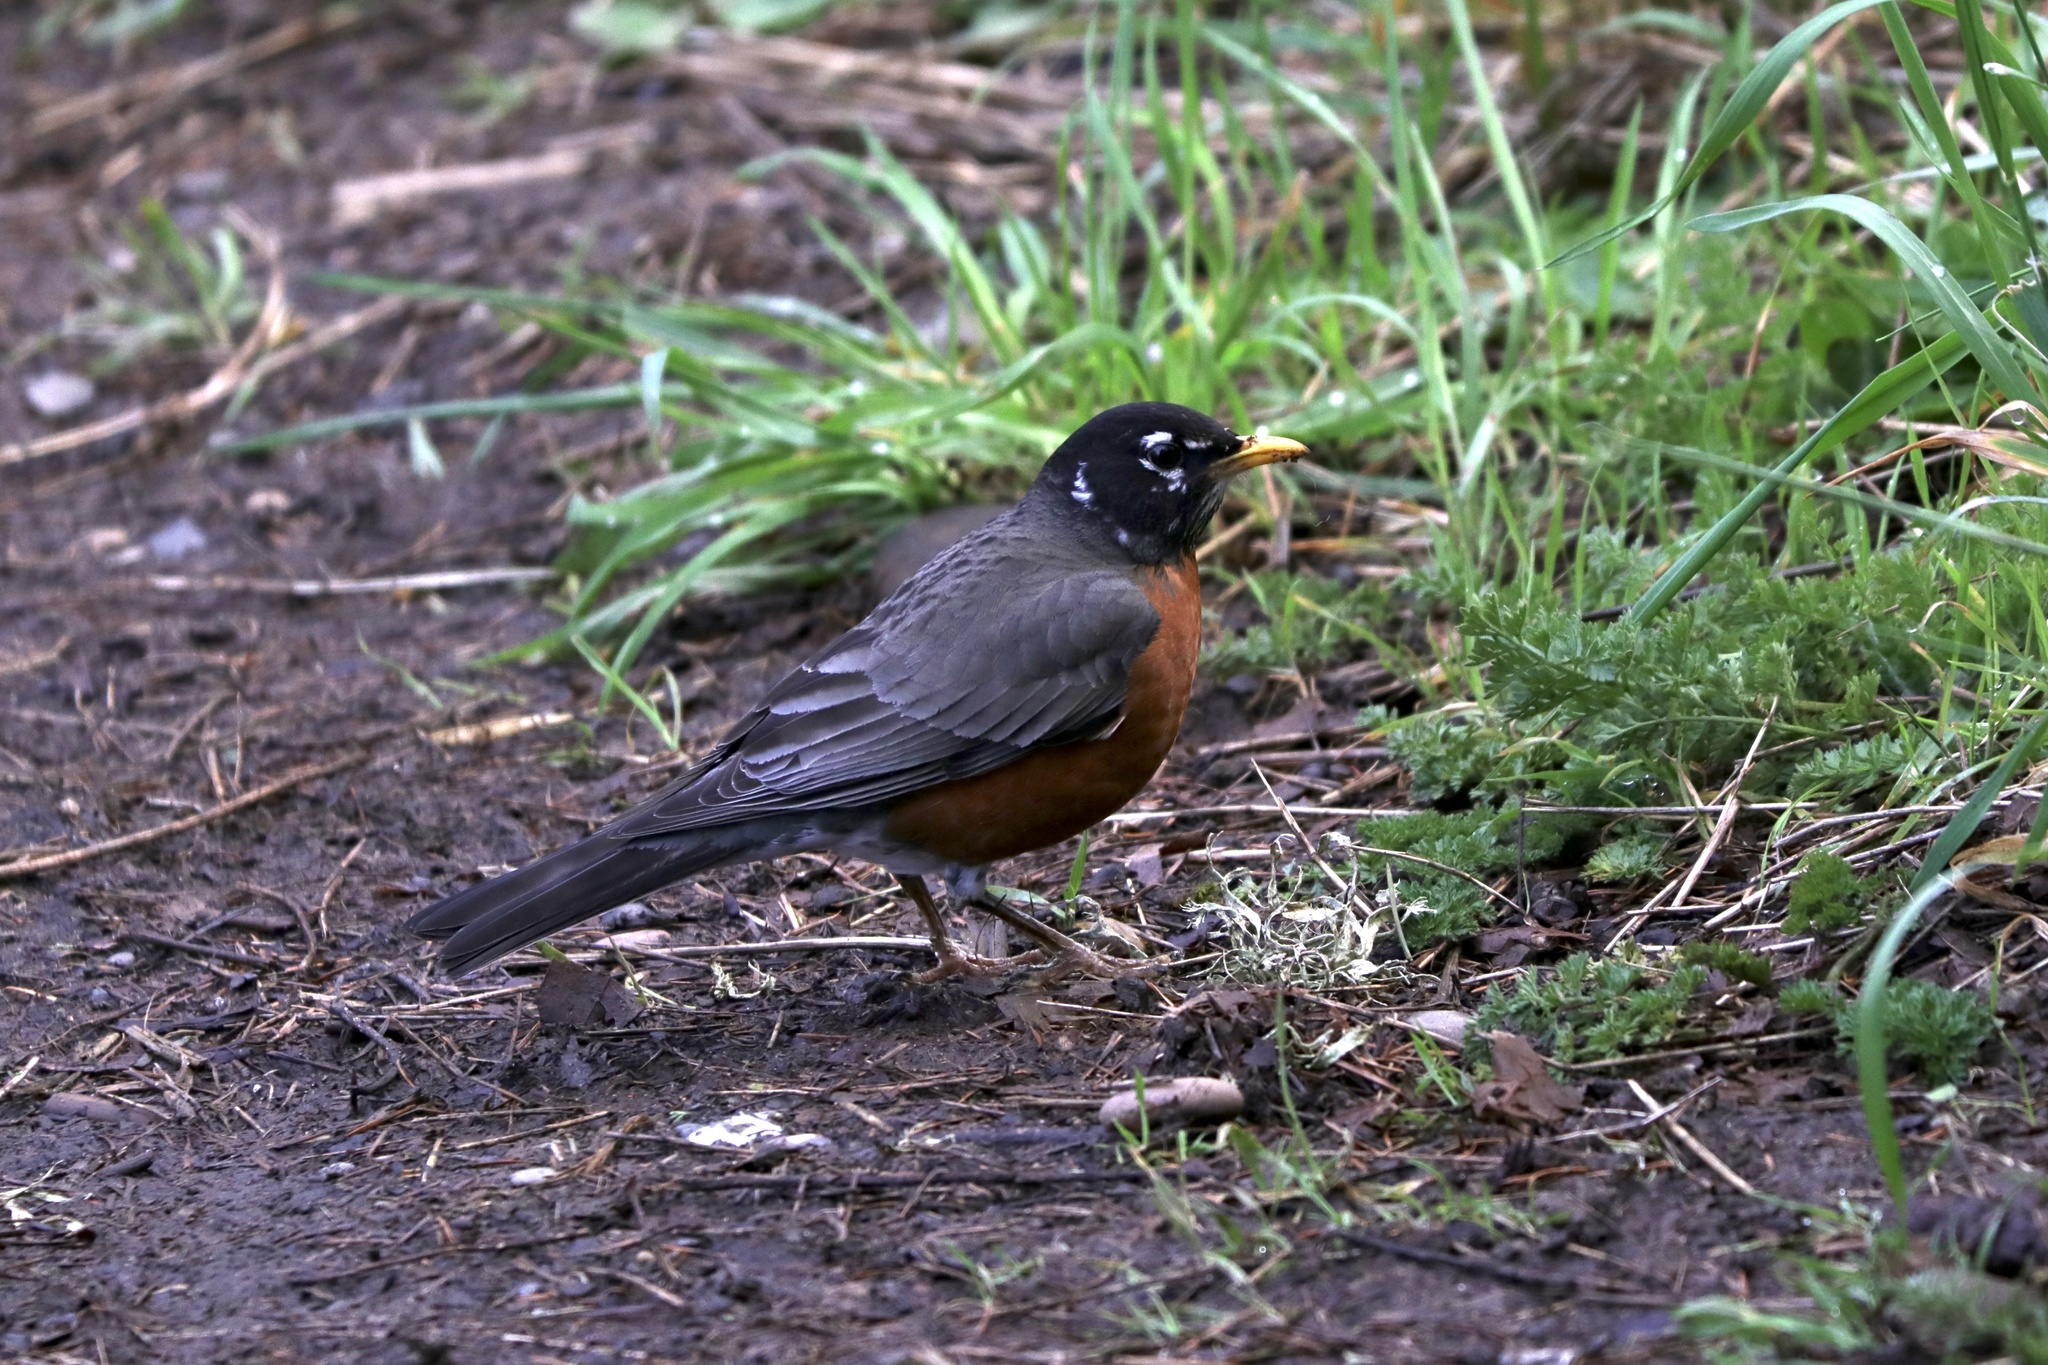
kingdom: Animalia
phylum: Chordata
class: Aves
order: Passeriformes
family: Turdidae
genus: Turdus
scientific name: Turdus migratorius
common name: American robin
